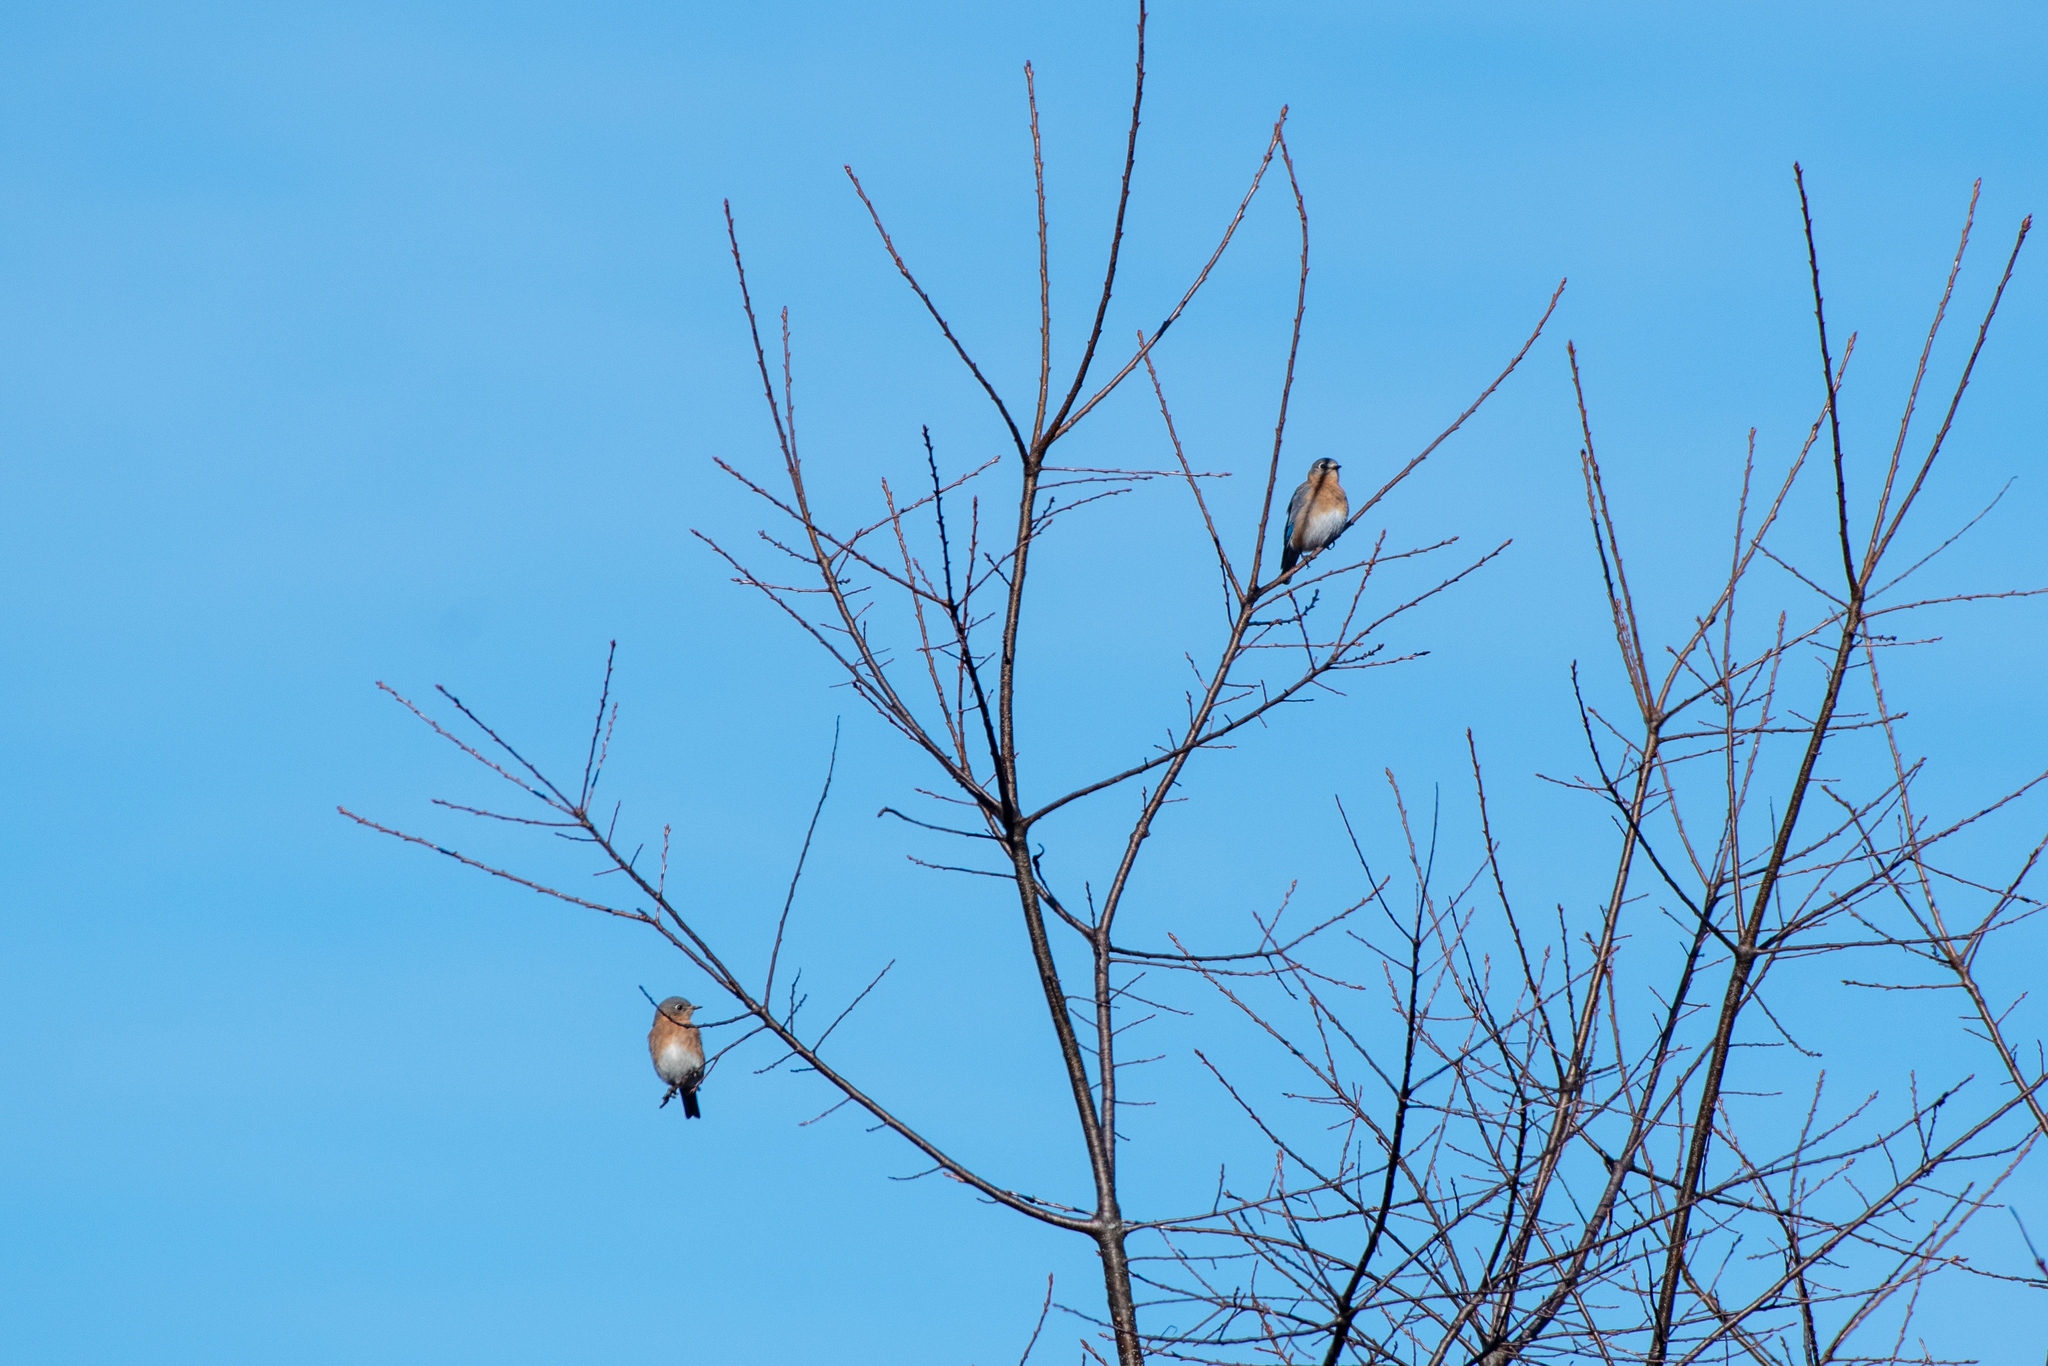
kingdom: Animalia
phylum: Chordata
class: Aves
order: Passeriformes
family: Turdidae
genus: Sialia
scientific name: Sialia sialis
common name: Eastern bluebird
